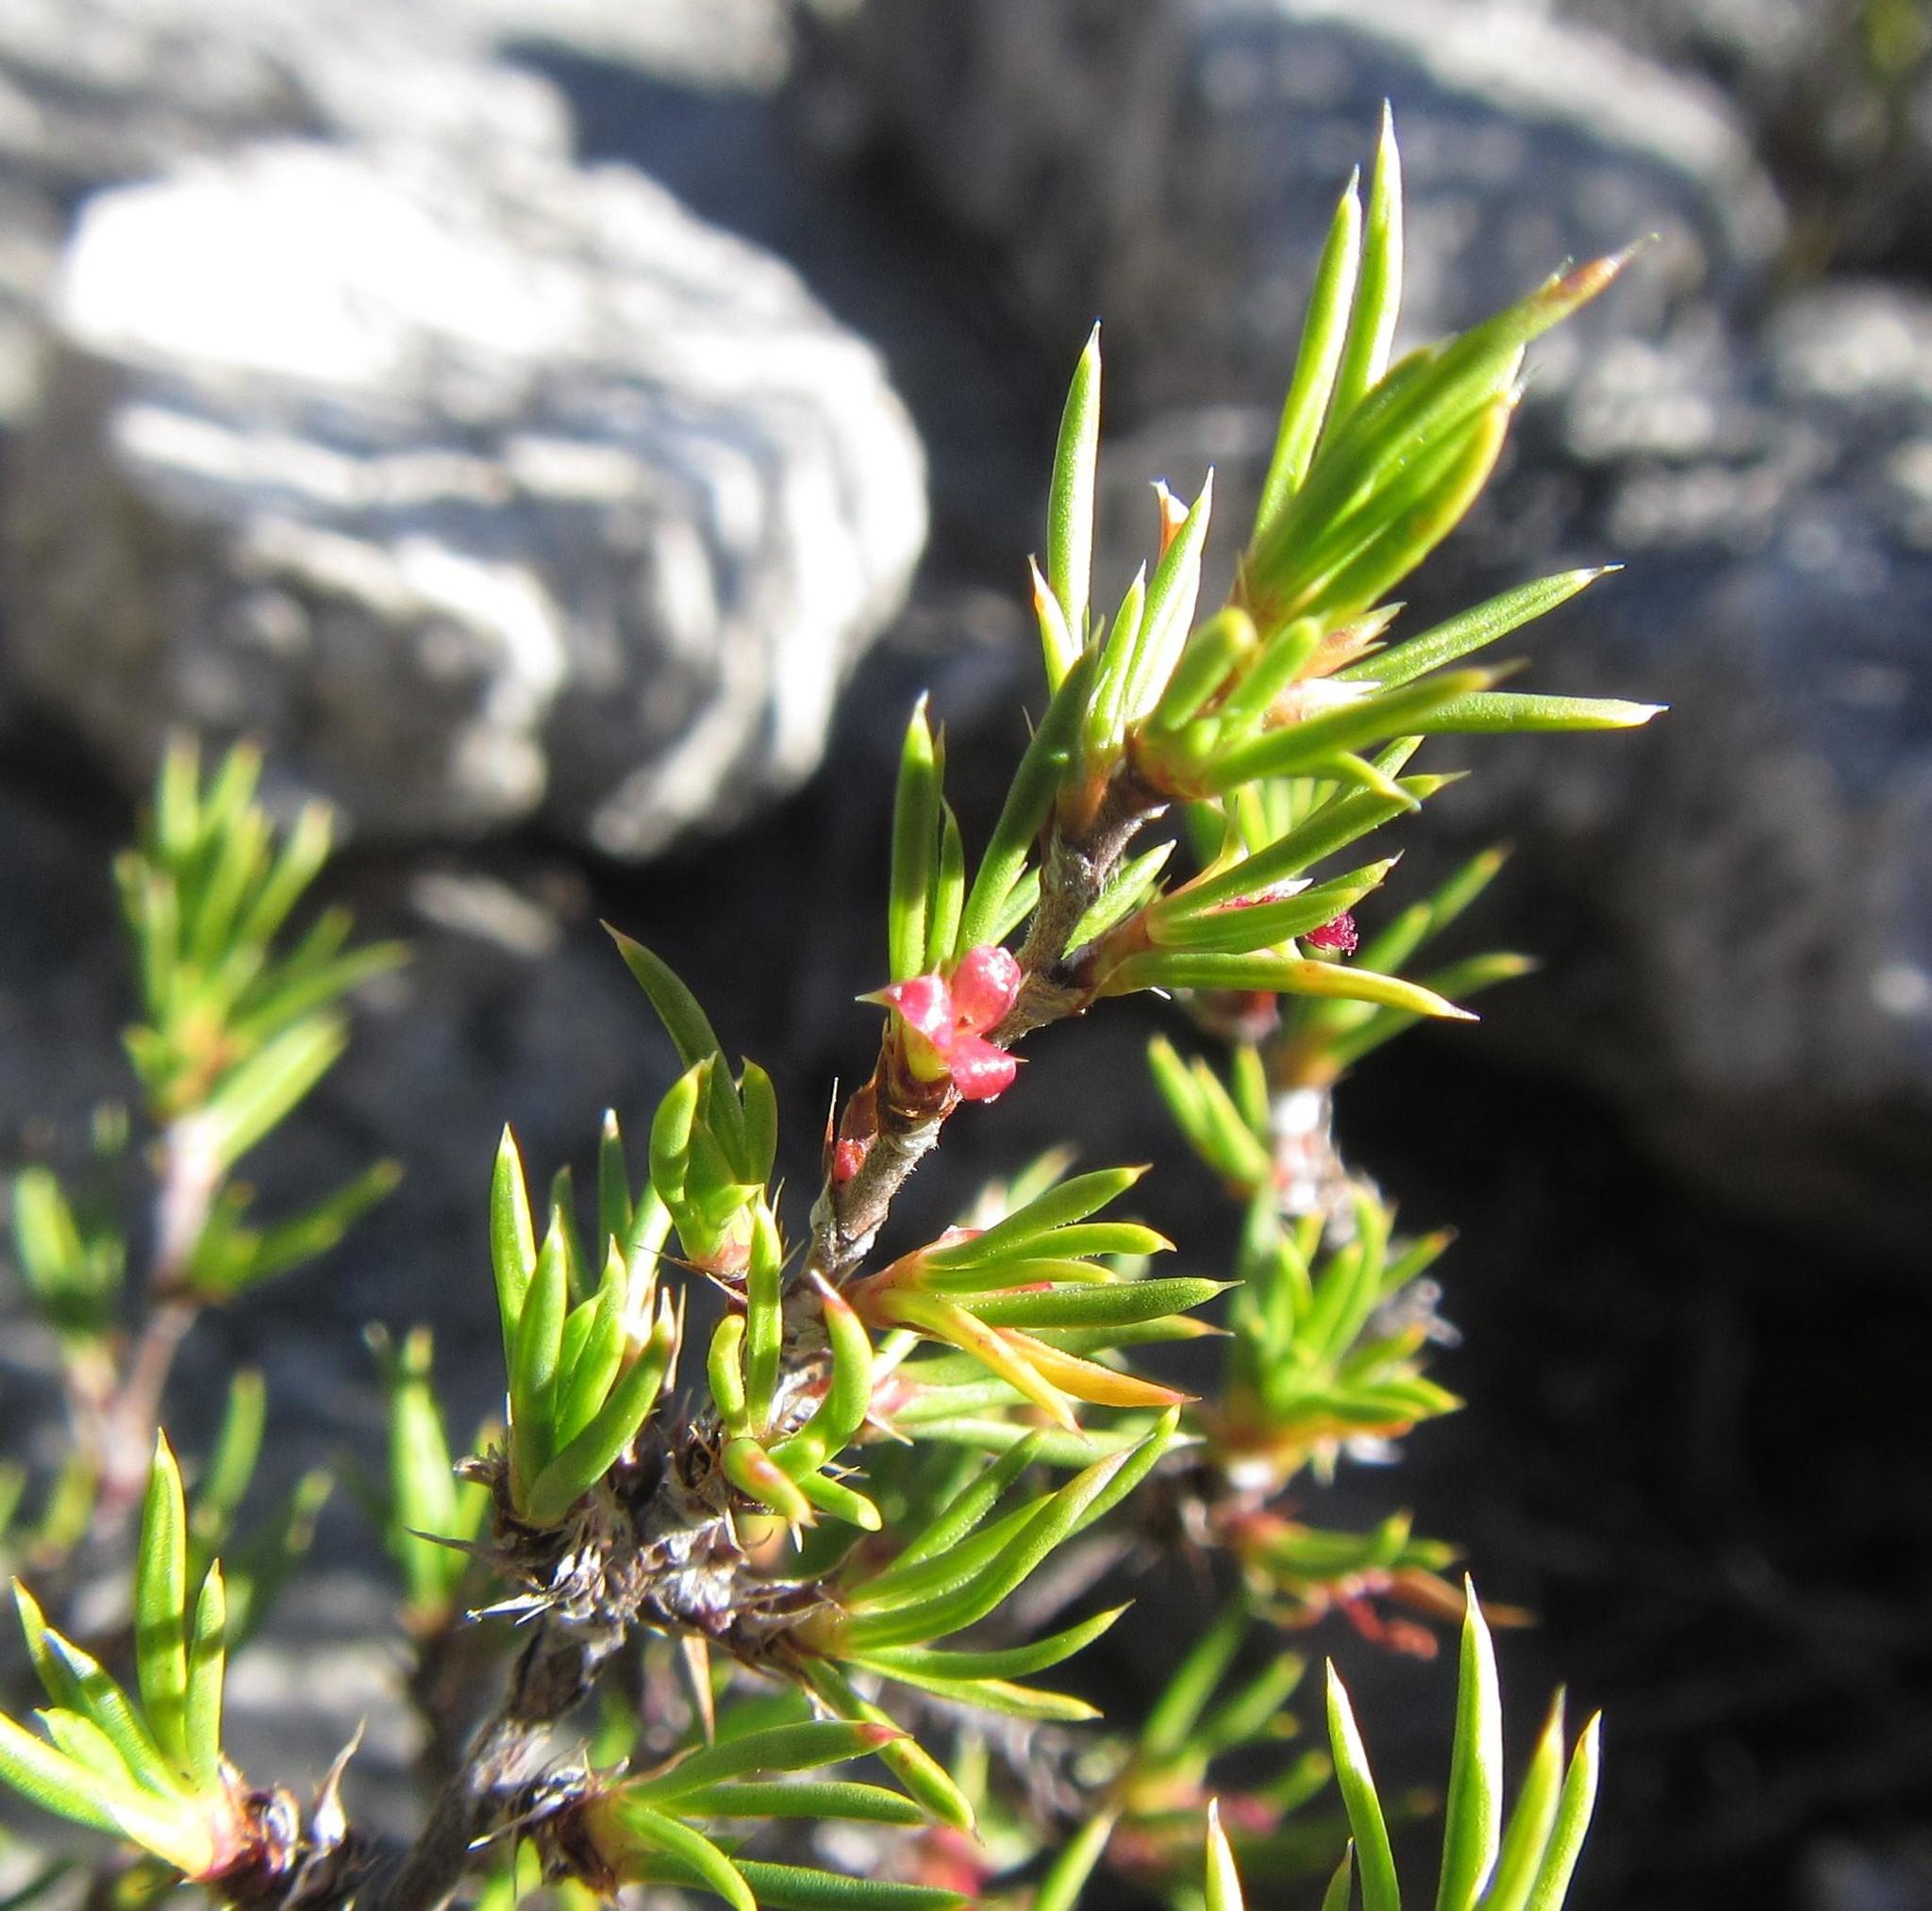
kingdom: Plantae
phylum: Tracheophyta
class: Magnoliopsida
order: Rosales
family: Rosaceae
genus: Cliffortia
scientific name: Cliffortia neglecta
